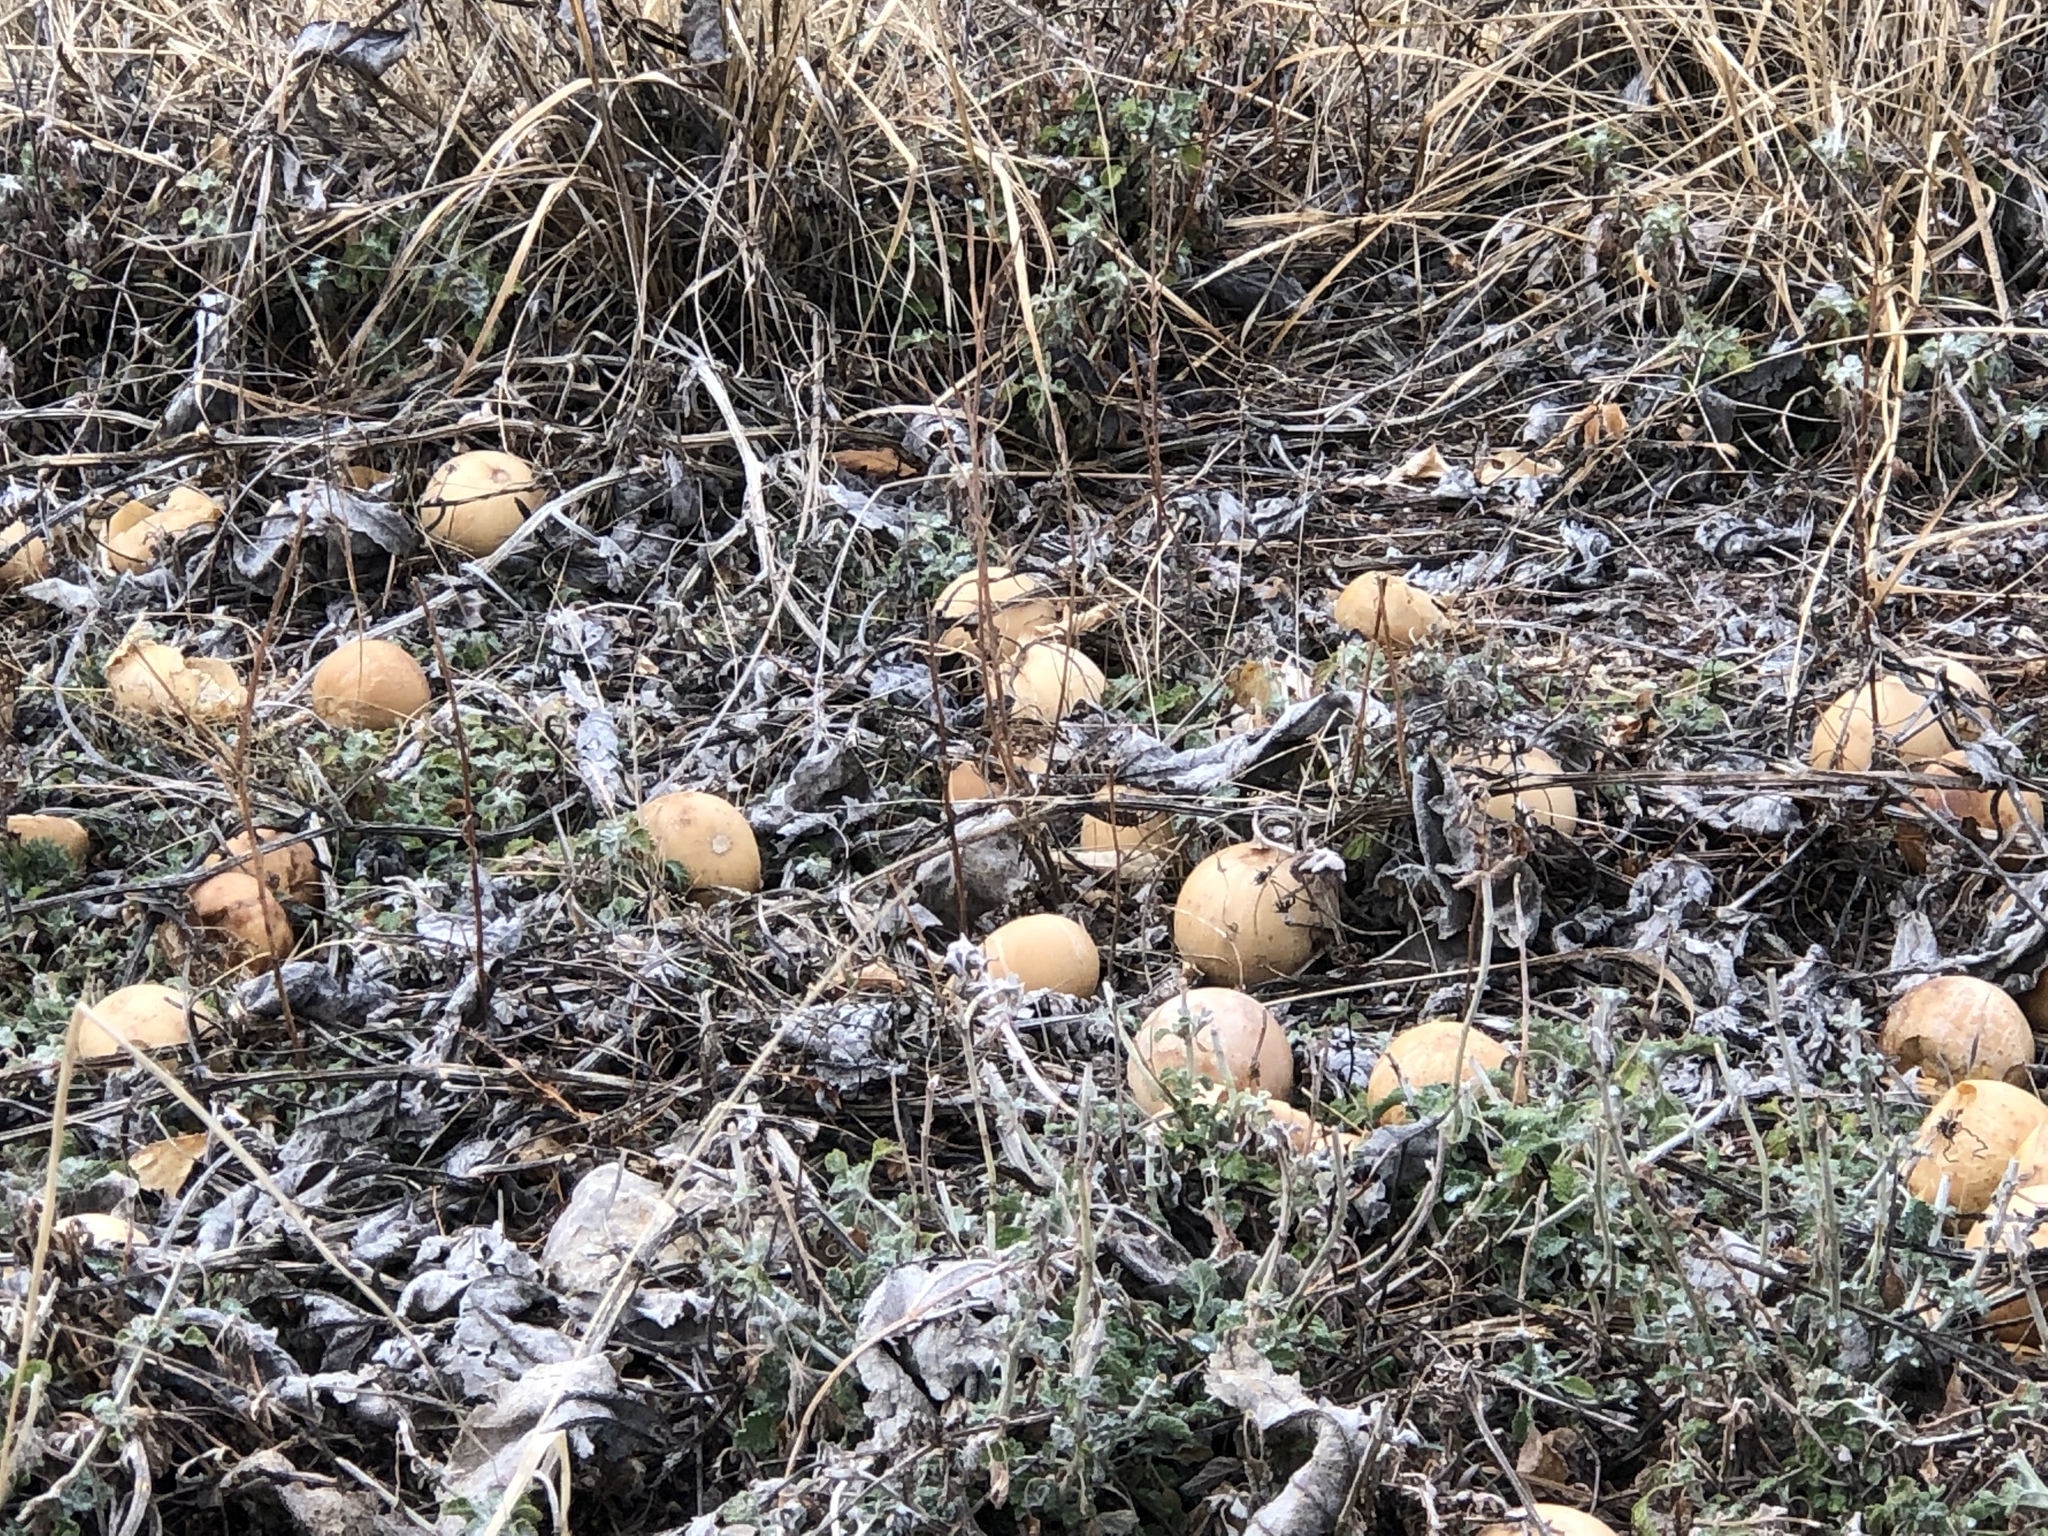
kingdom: Plantae
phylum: Tracheophyta
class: Magnoliopsida
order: Cucurbitales
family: Cucurbitaceae
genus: Cucurbita
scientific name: Cucurbita foetidissima
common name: Buffalo gourd
